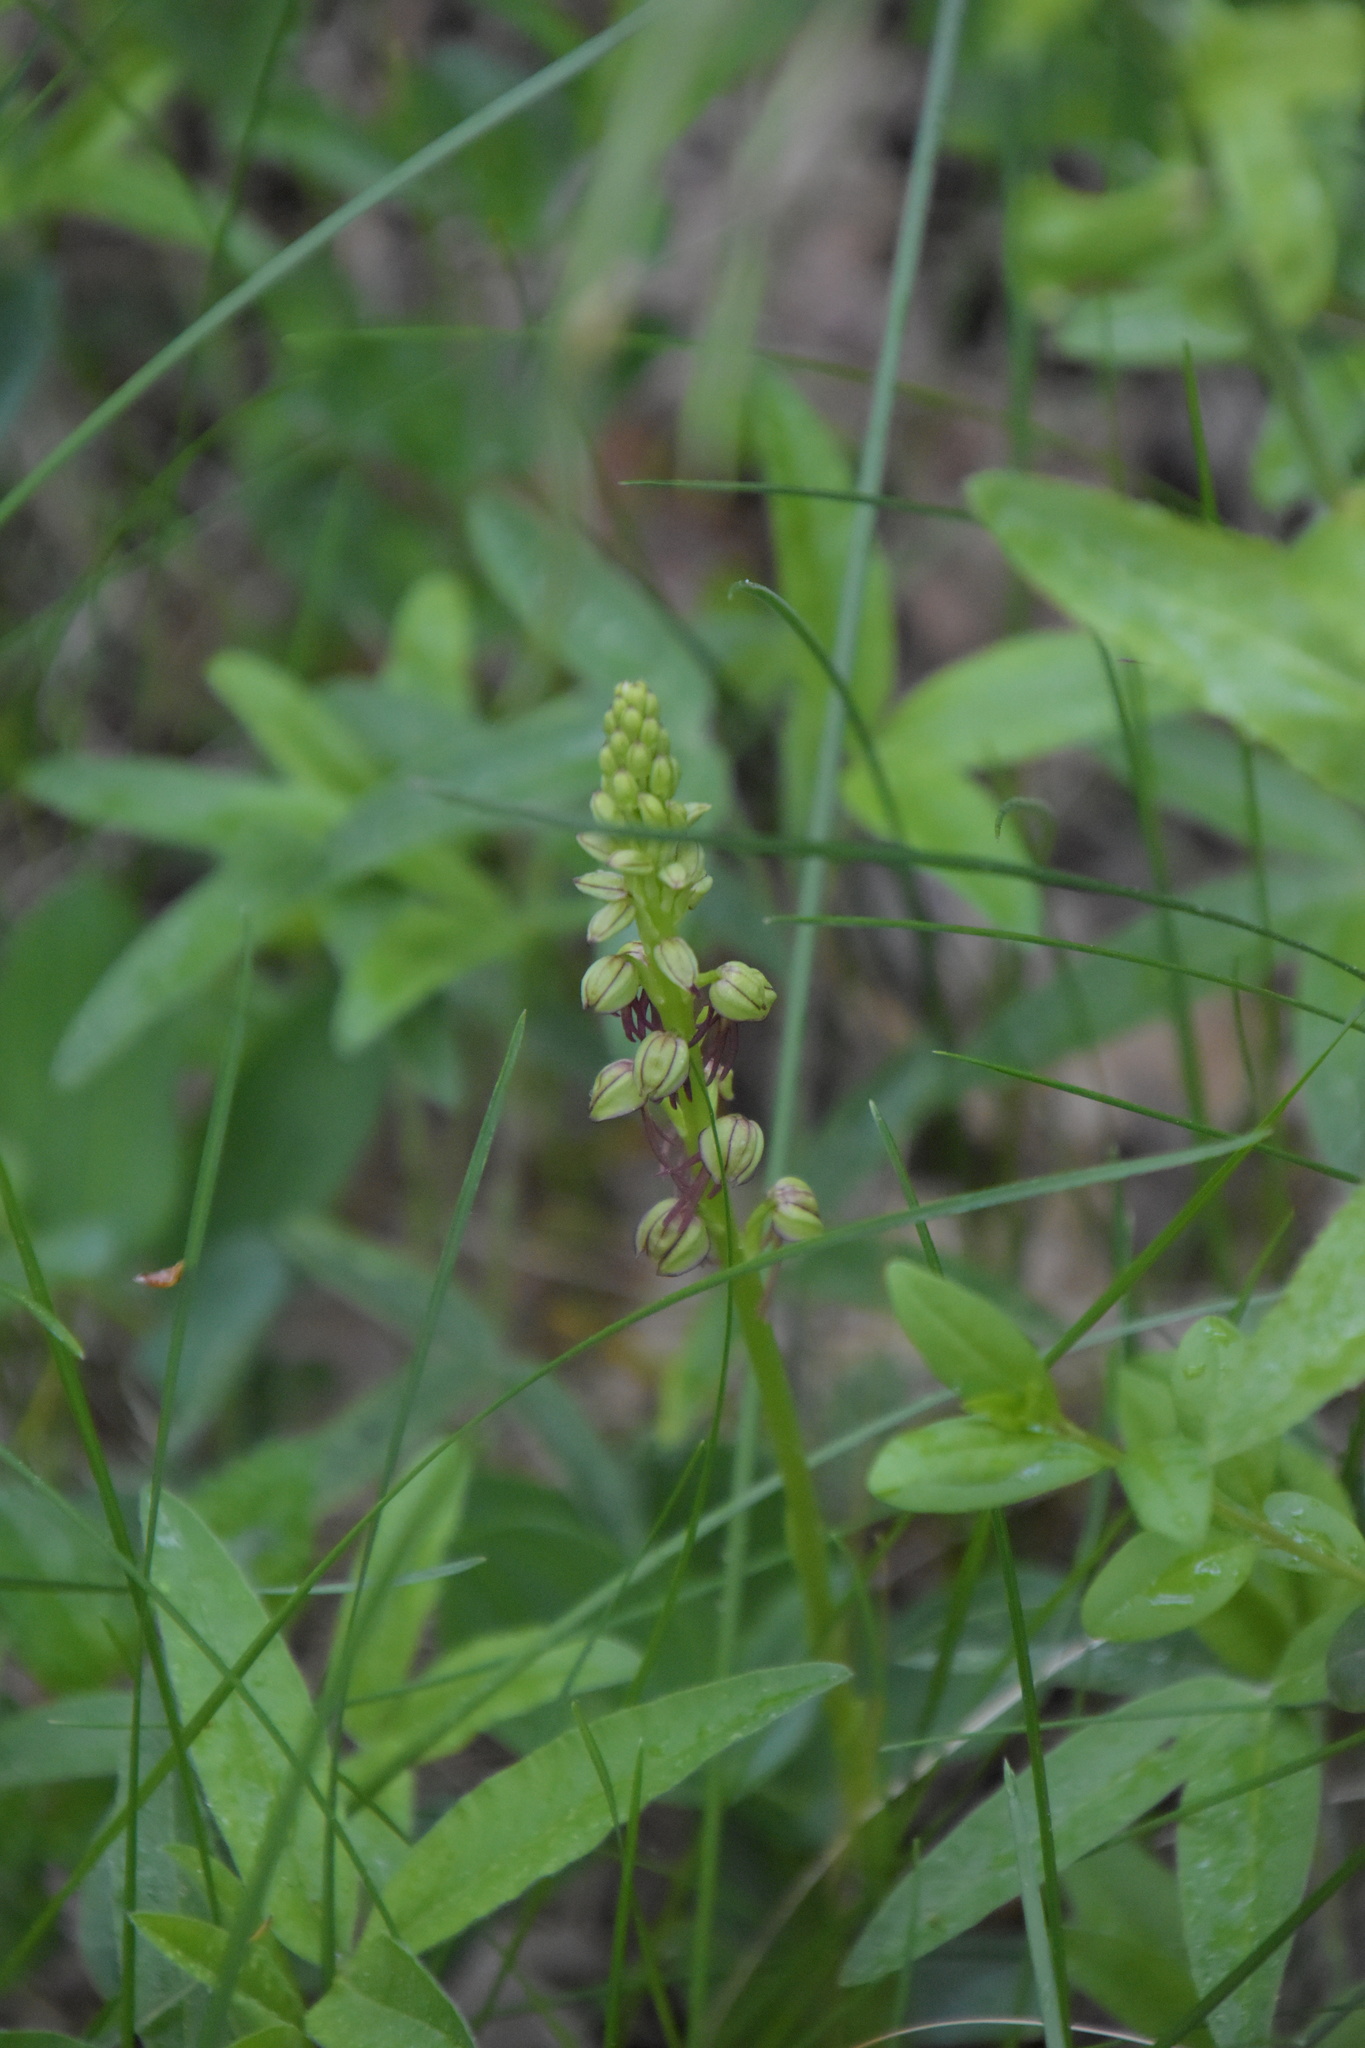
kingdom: Plantae
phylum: Tracheophyta
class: Liliopsida
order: Asparagales
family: Orchidaceae
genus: Orchis
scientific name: Orchis anthropophora
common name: Man orchid
